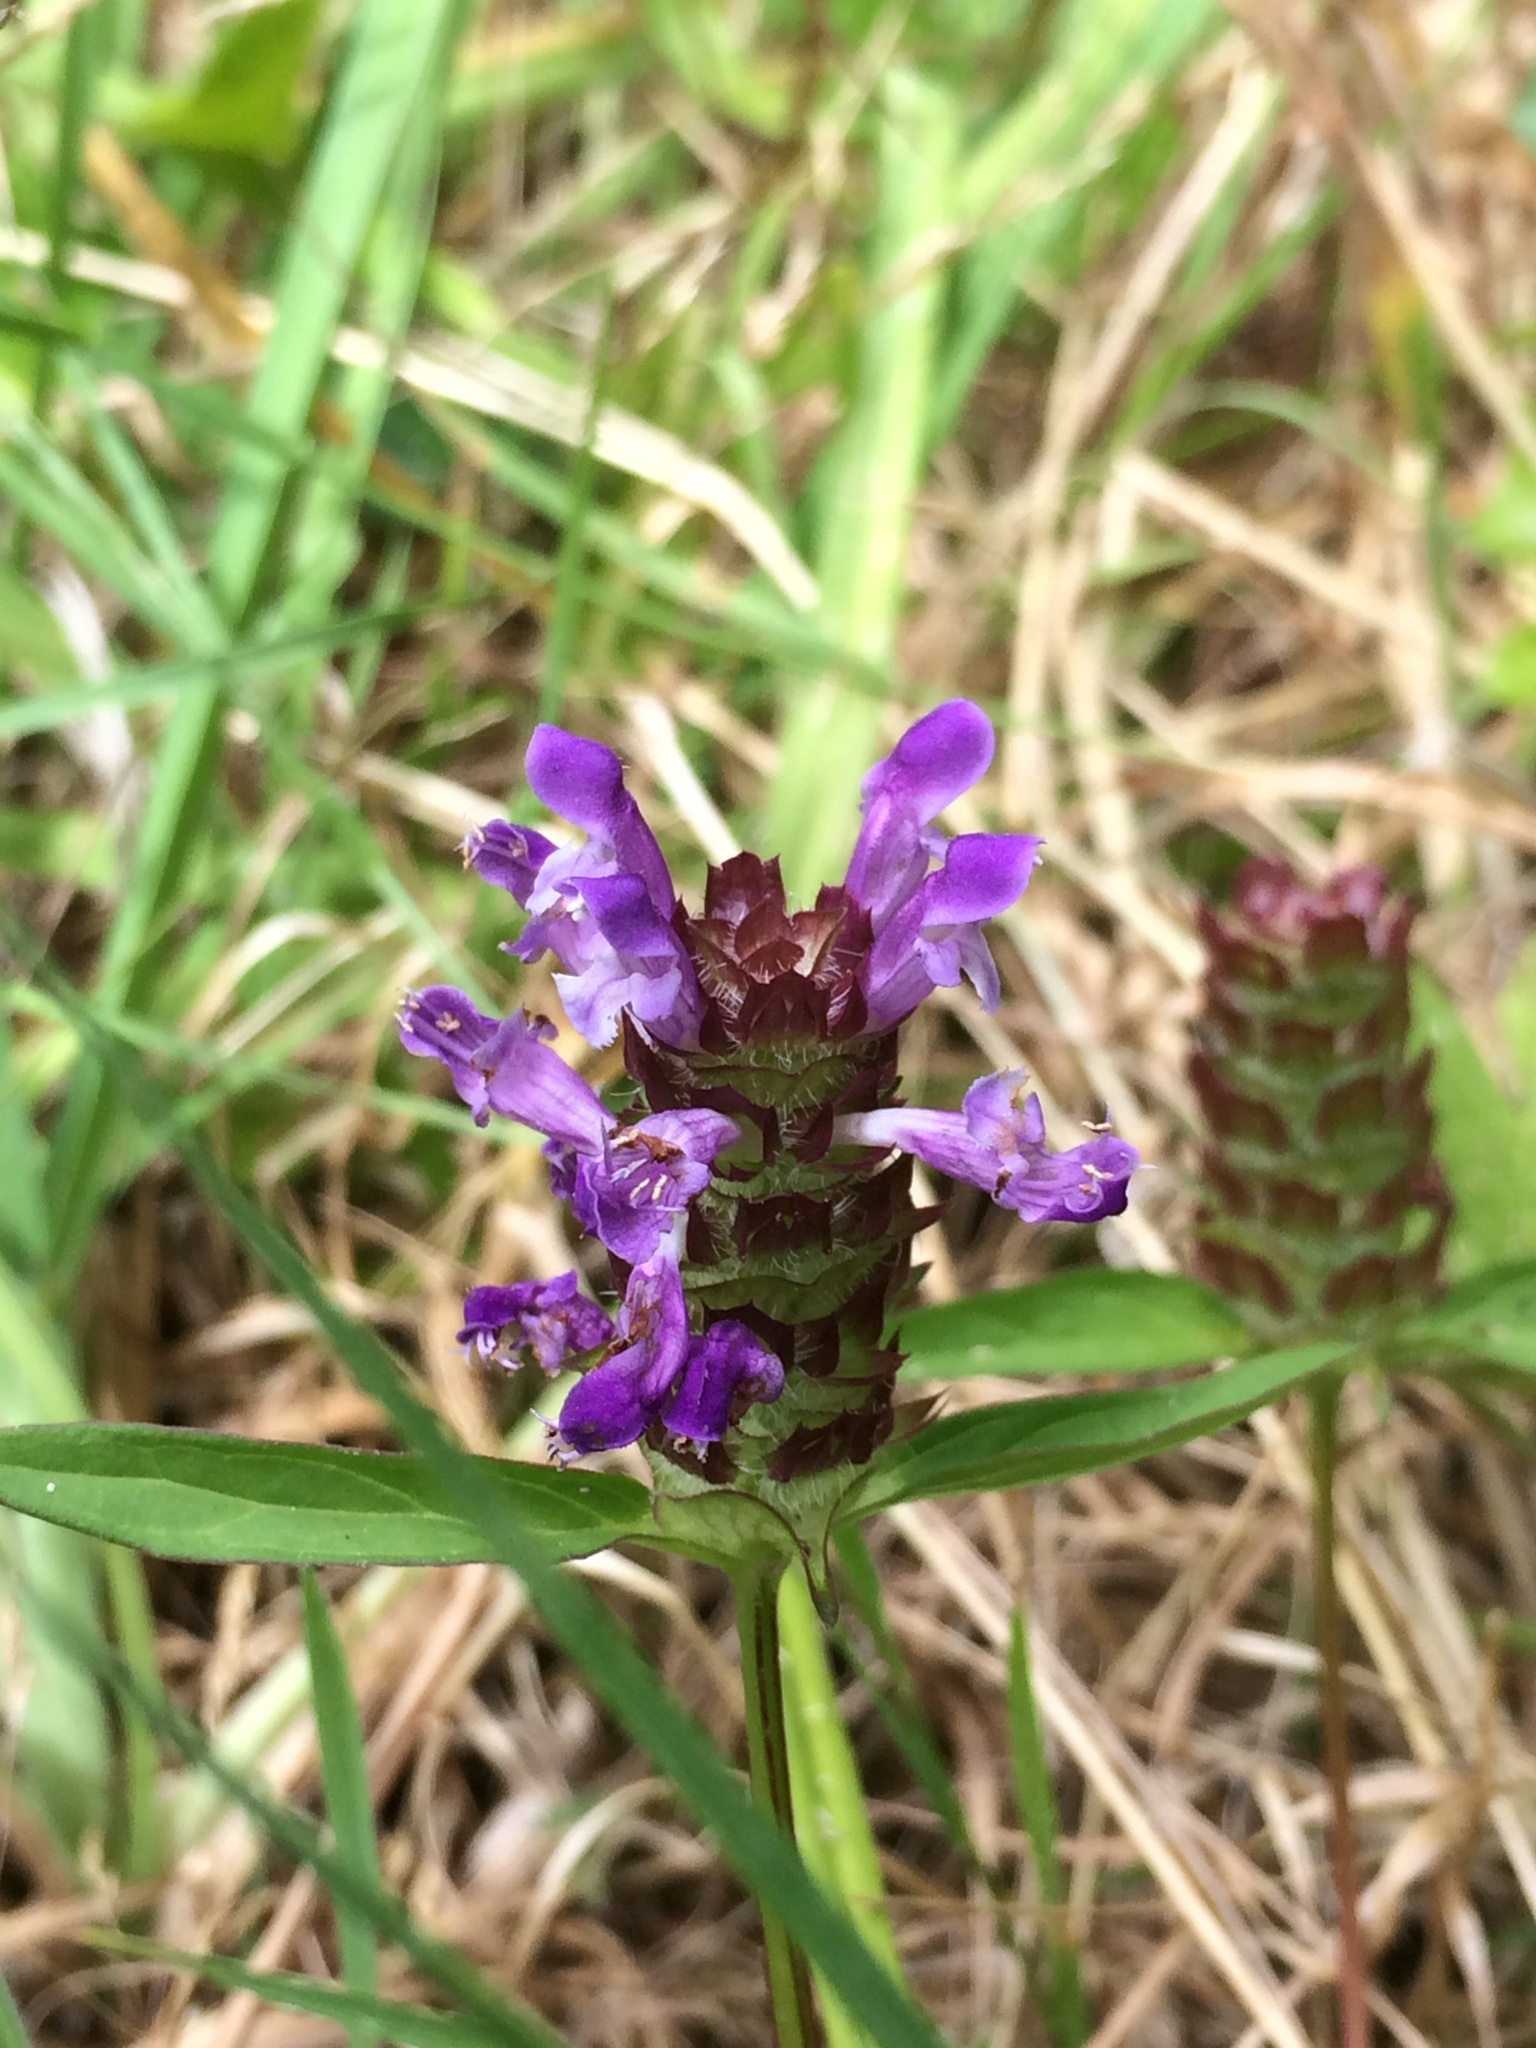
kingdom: Plantae
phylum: Tracheophyta
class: Magnoliopsida
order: Lamiales
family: Lamiaceae
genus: Prunella
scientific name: Prunella vulgaris
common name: Heal-all
